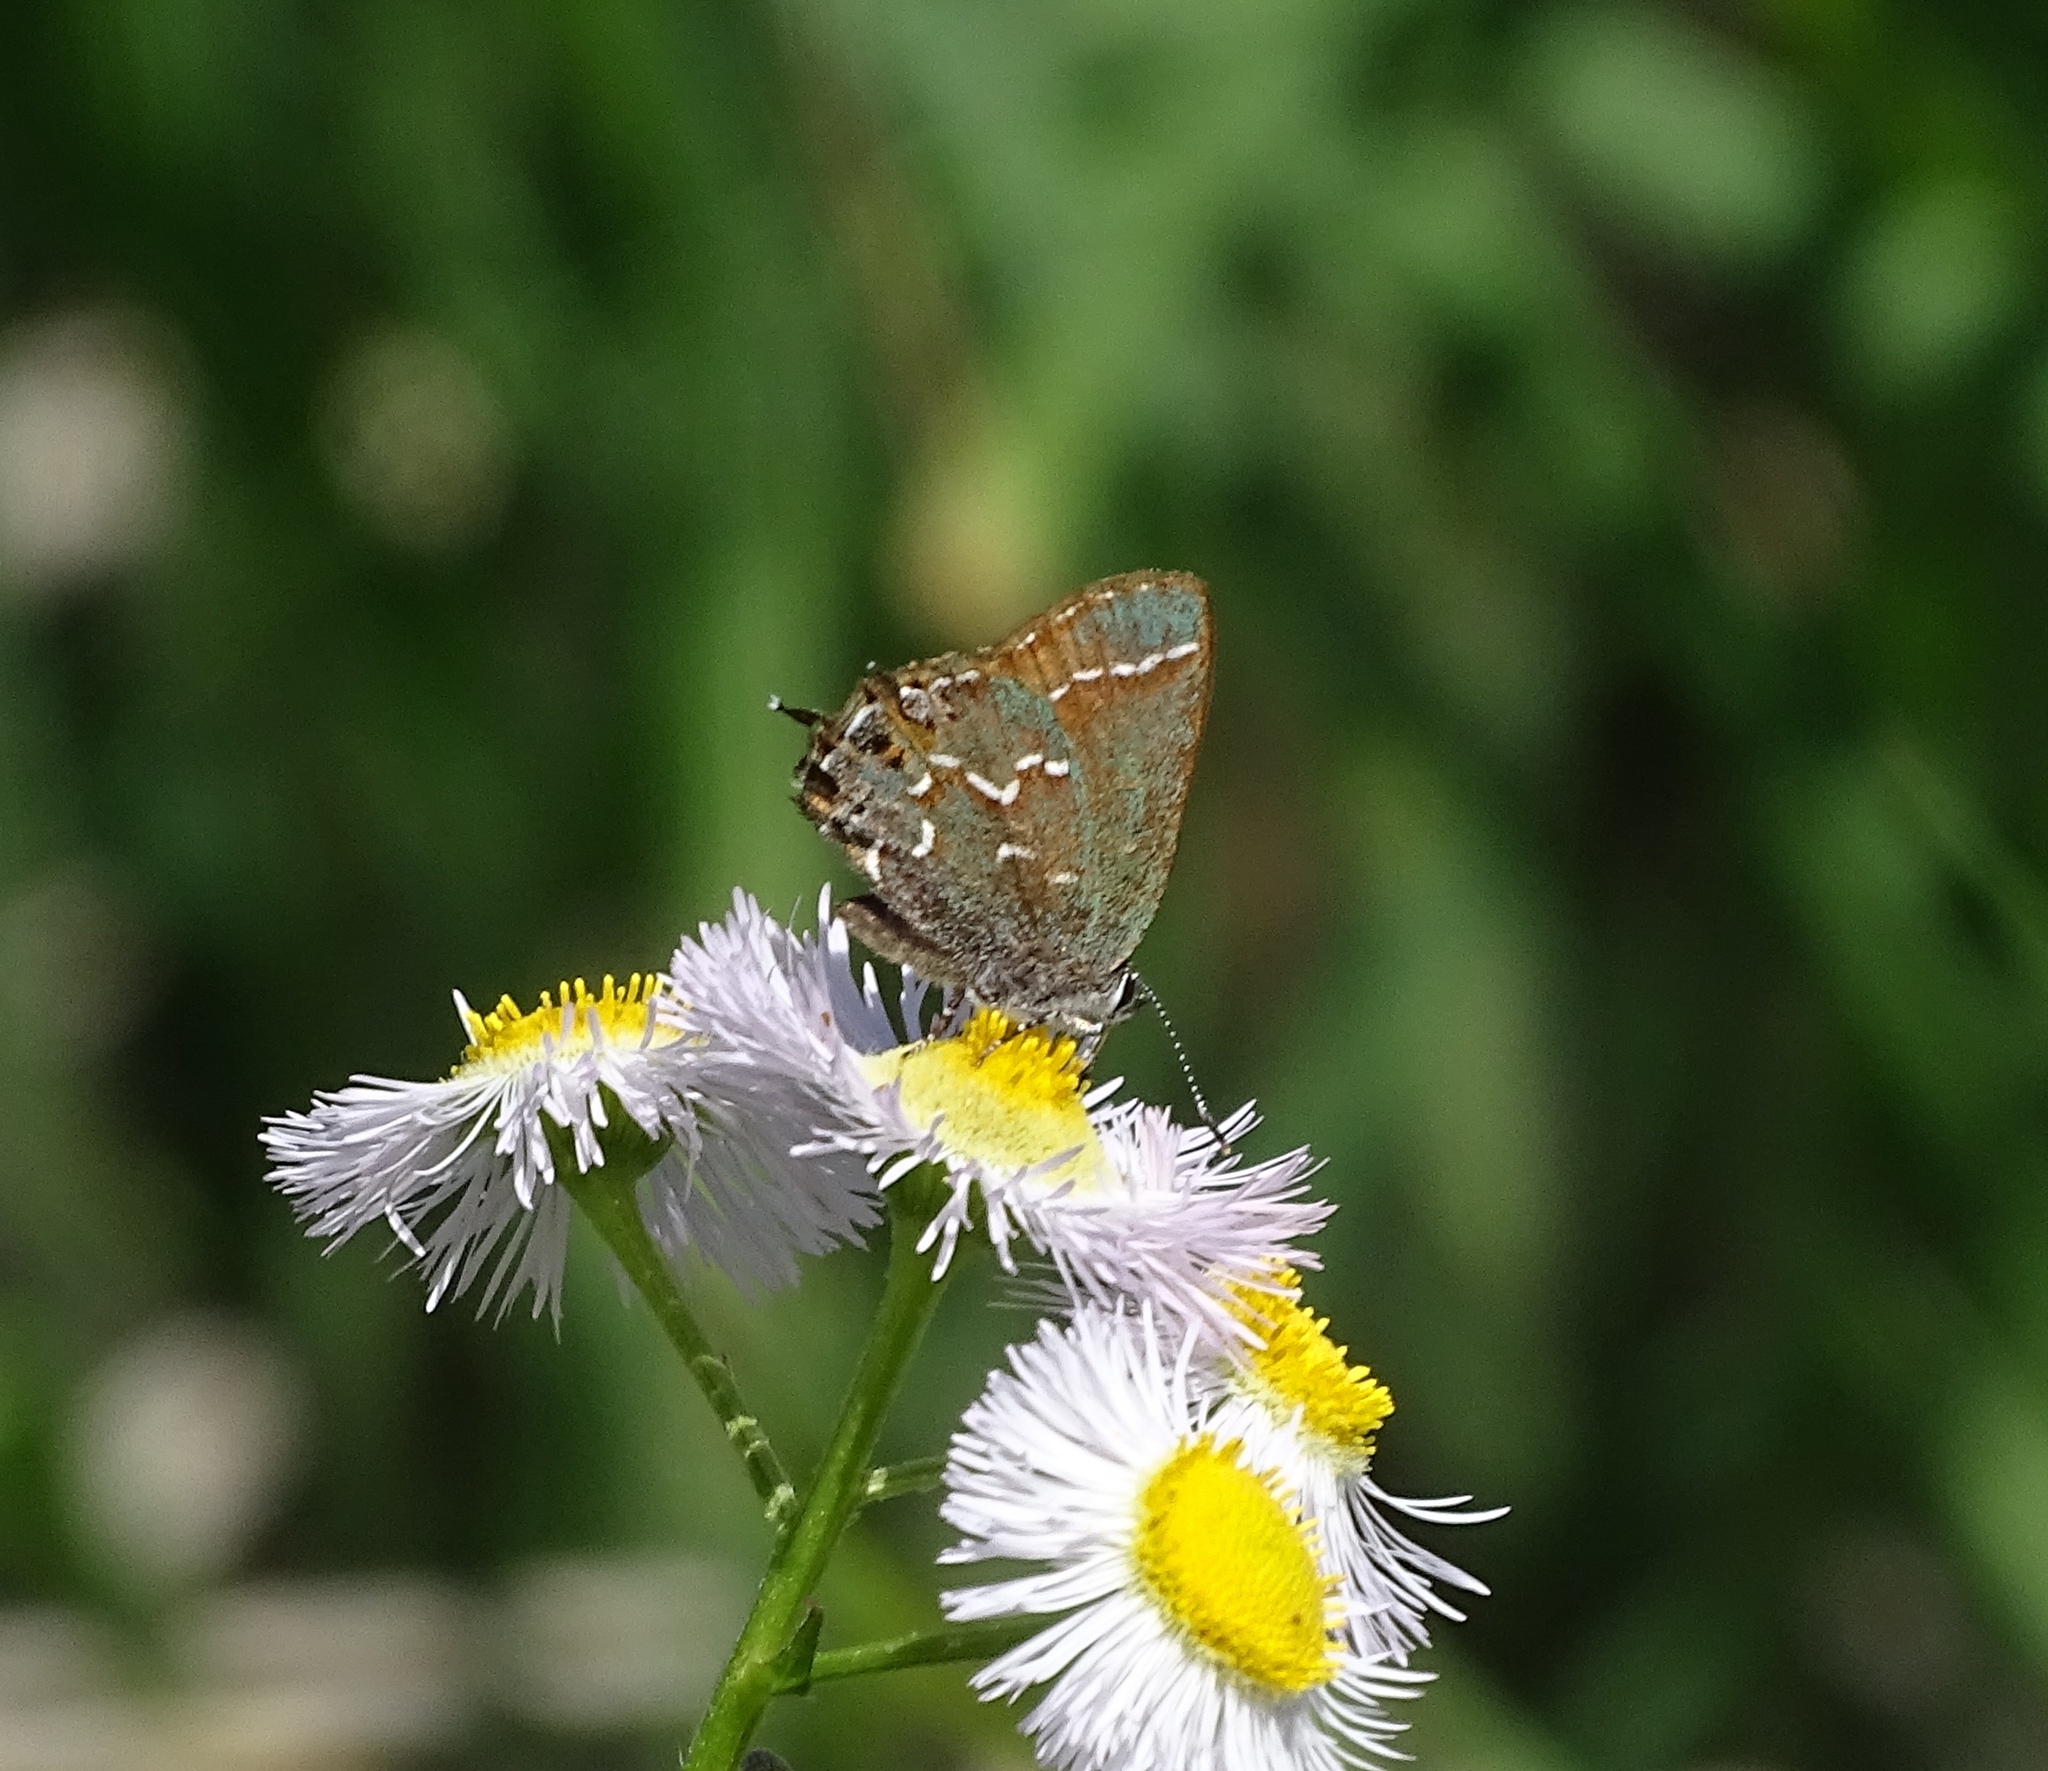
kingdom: Animalia
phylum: Arthropoda
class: Insecta
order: Lepidoptera
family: Lycaenidae
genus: Mitoura
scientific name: Mitoura gryneus
